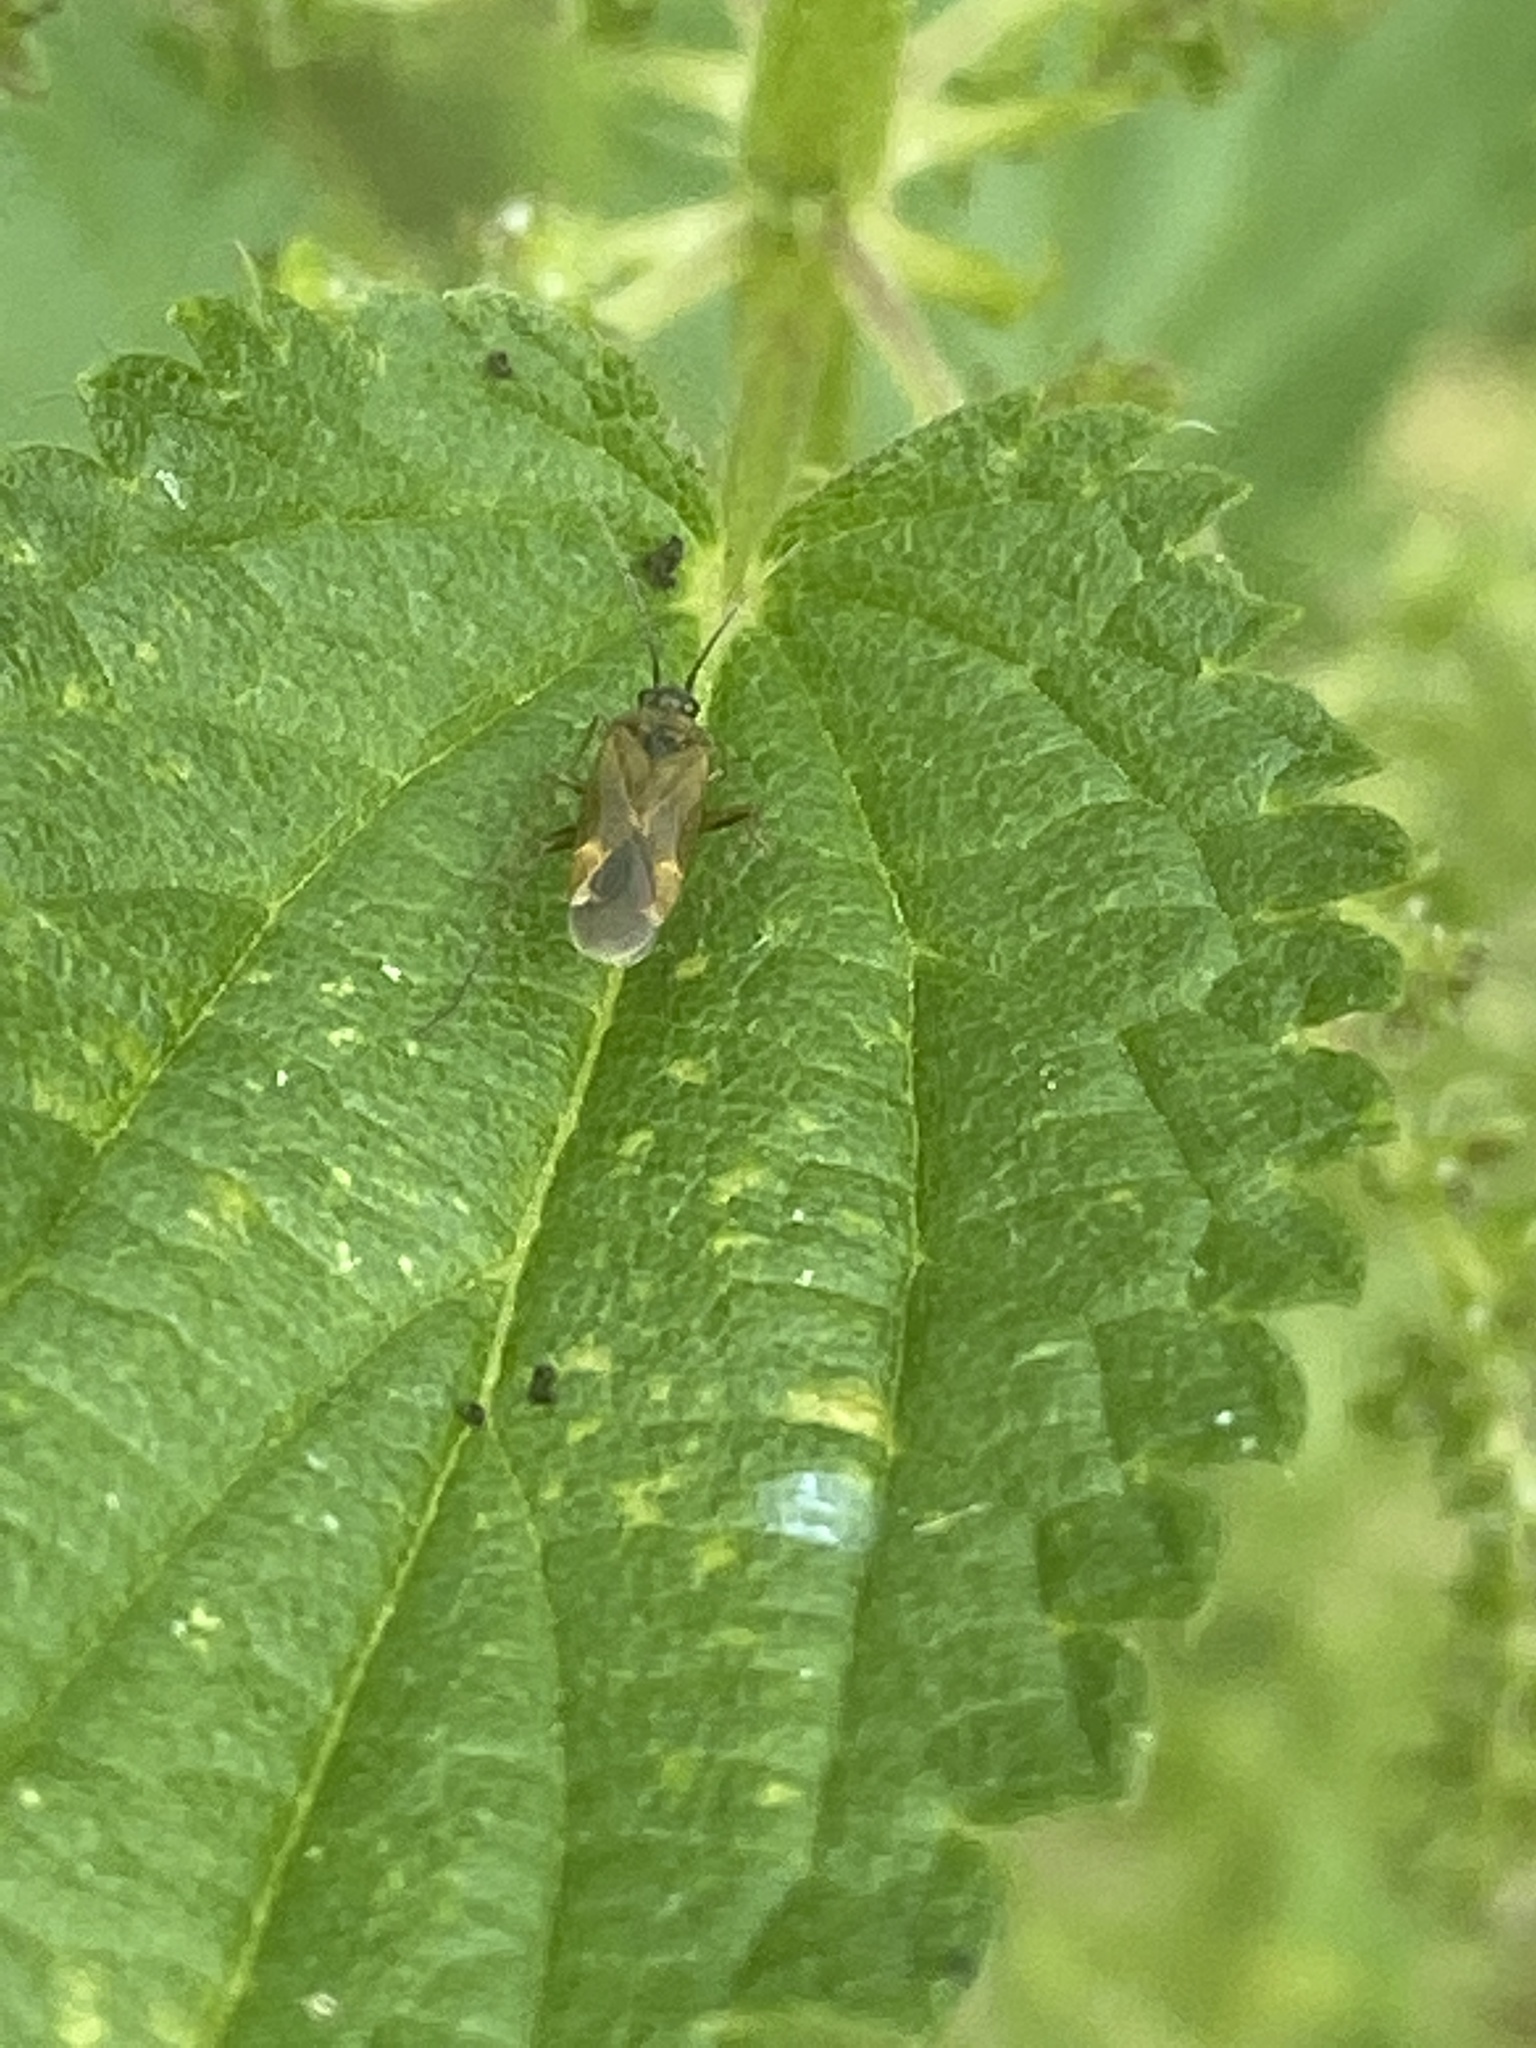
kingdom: Animalia
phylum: Arthropoda
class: Insecta
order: Hemiptera
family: Miridae
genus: Plagiognathus
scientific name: Plagiognathus arbustorum
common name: Plant bug
